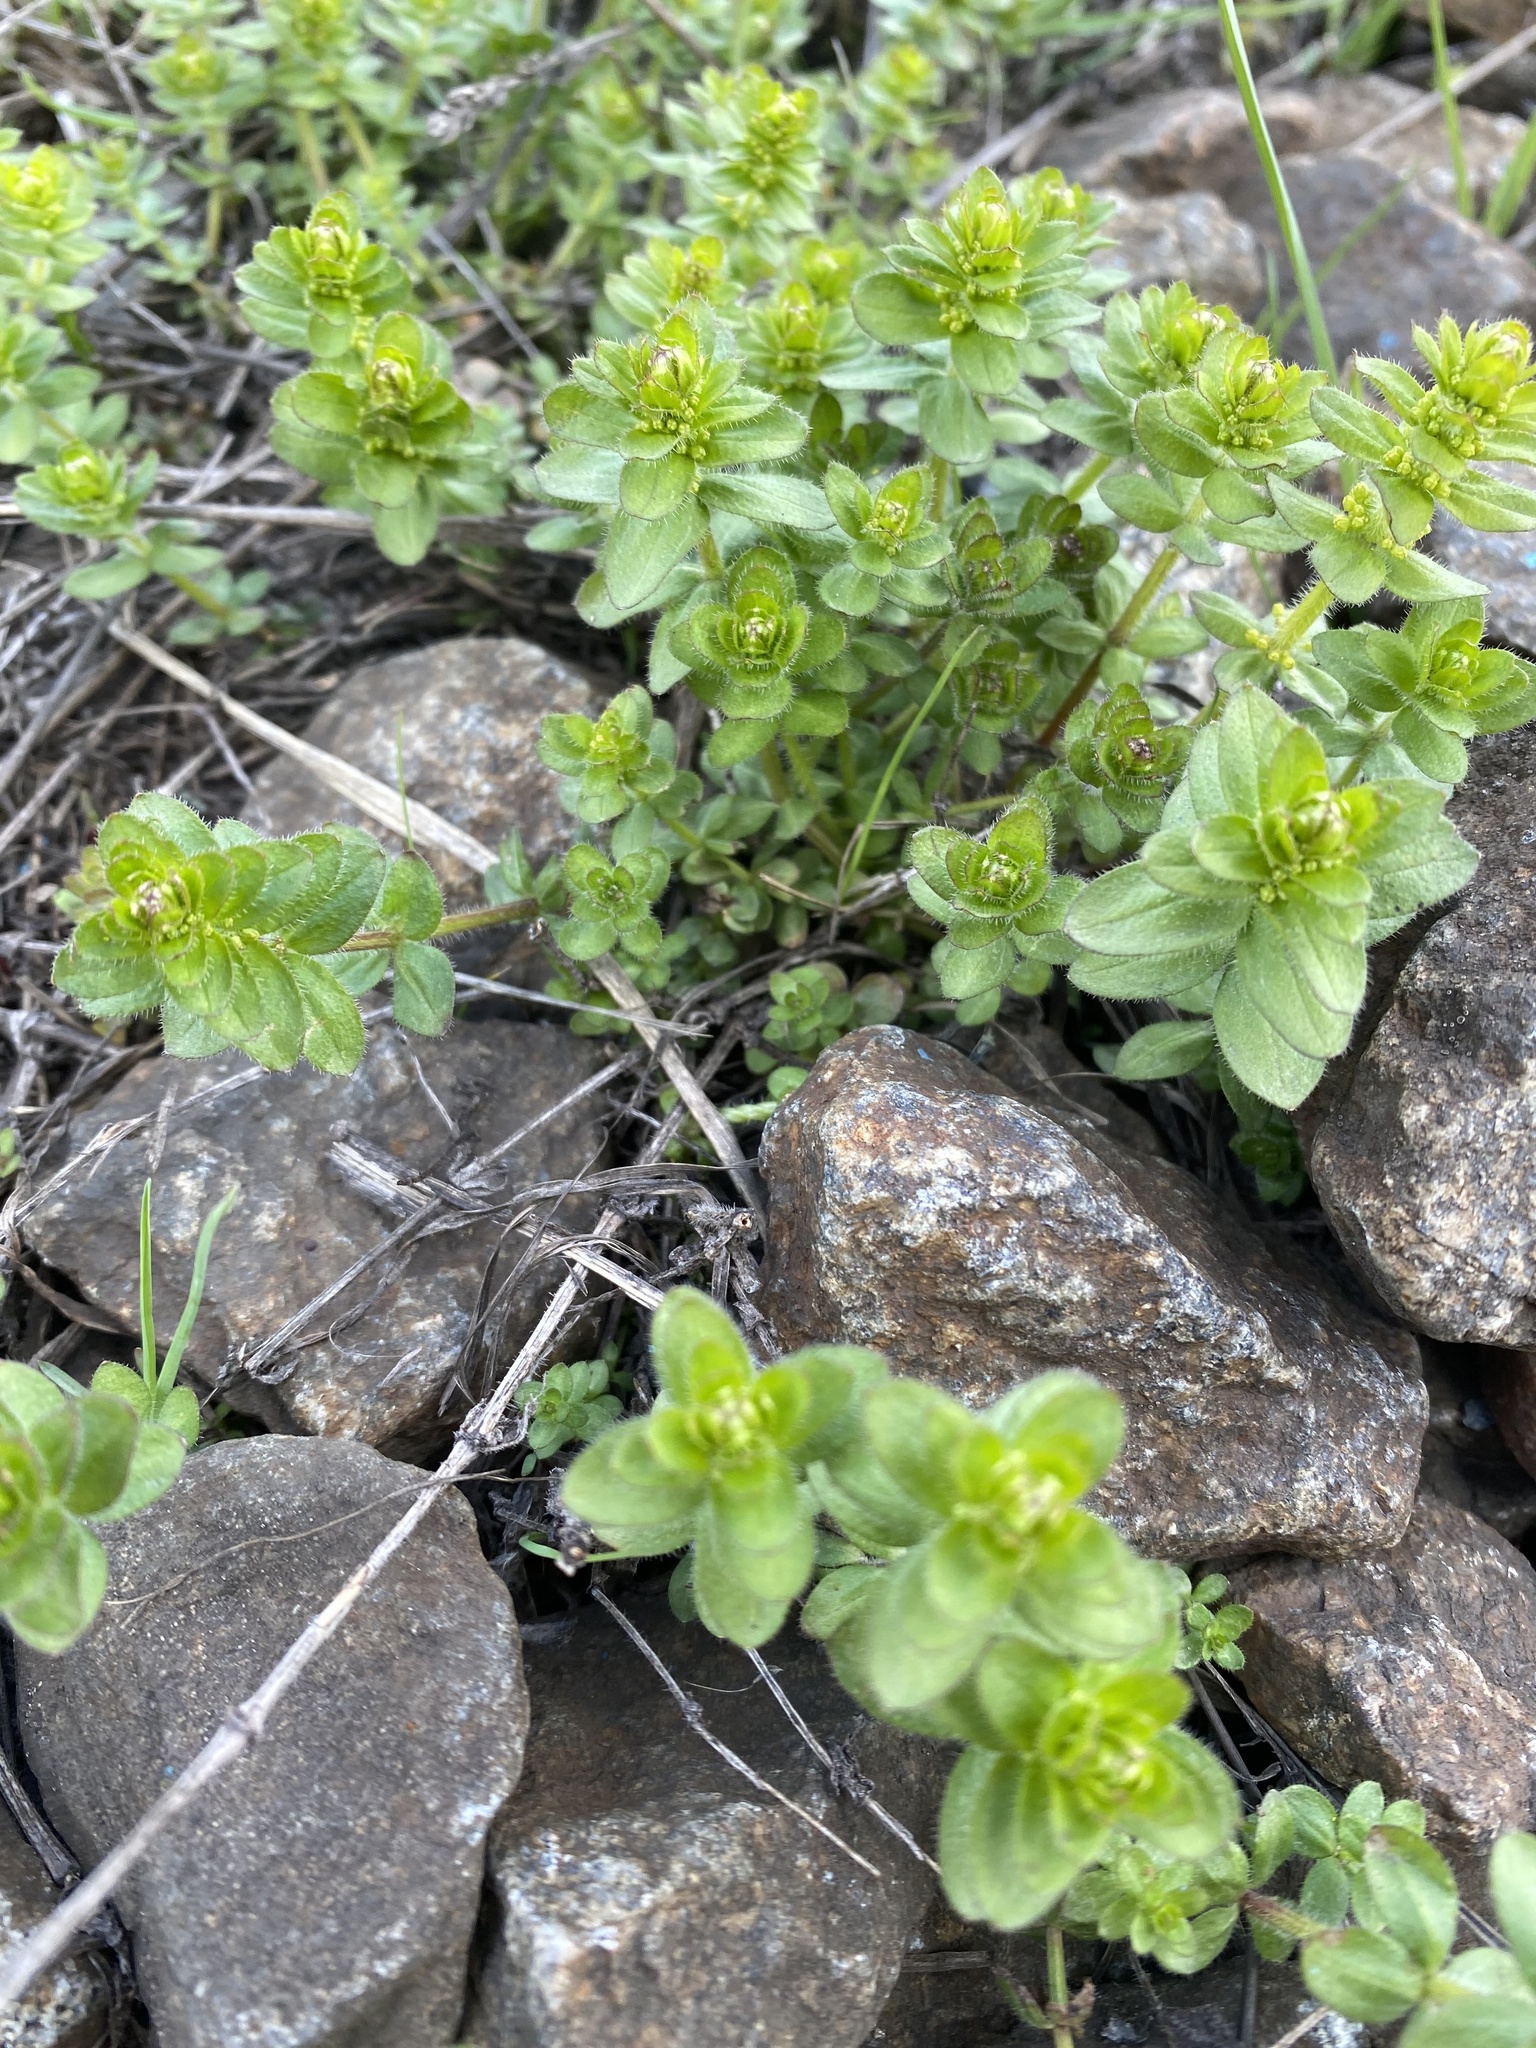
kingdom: Plantae
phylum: Tracheophyta
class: Magnoliopsida
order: Gentianales
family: Rubiaceae
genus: Cruciata
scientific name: Cruciata glabra
